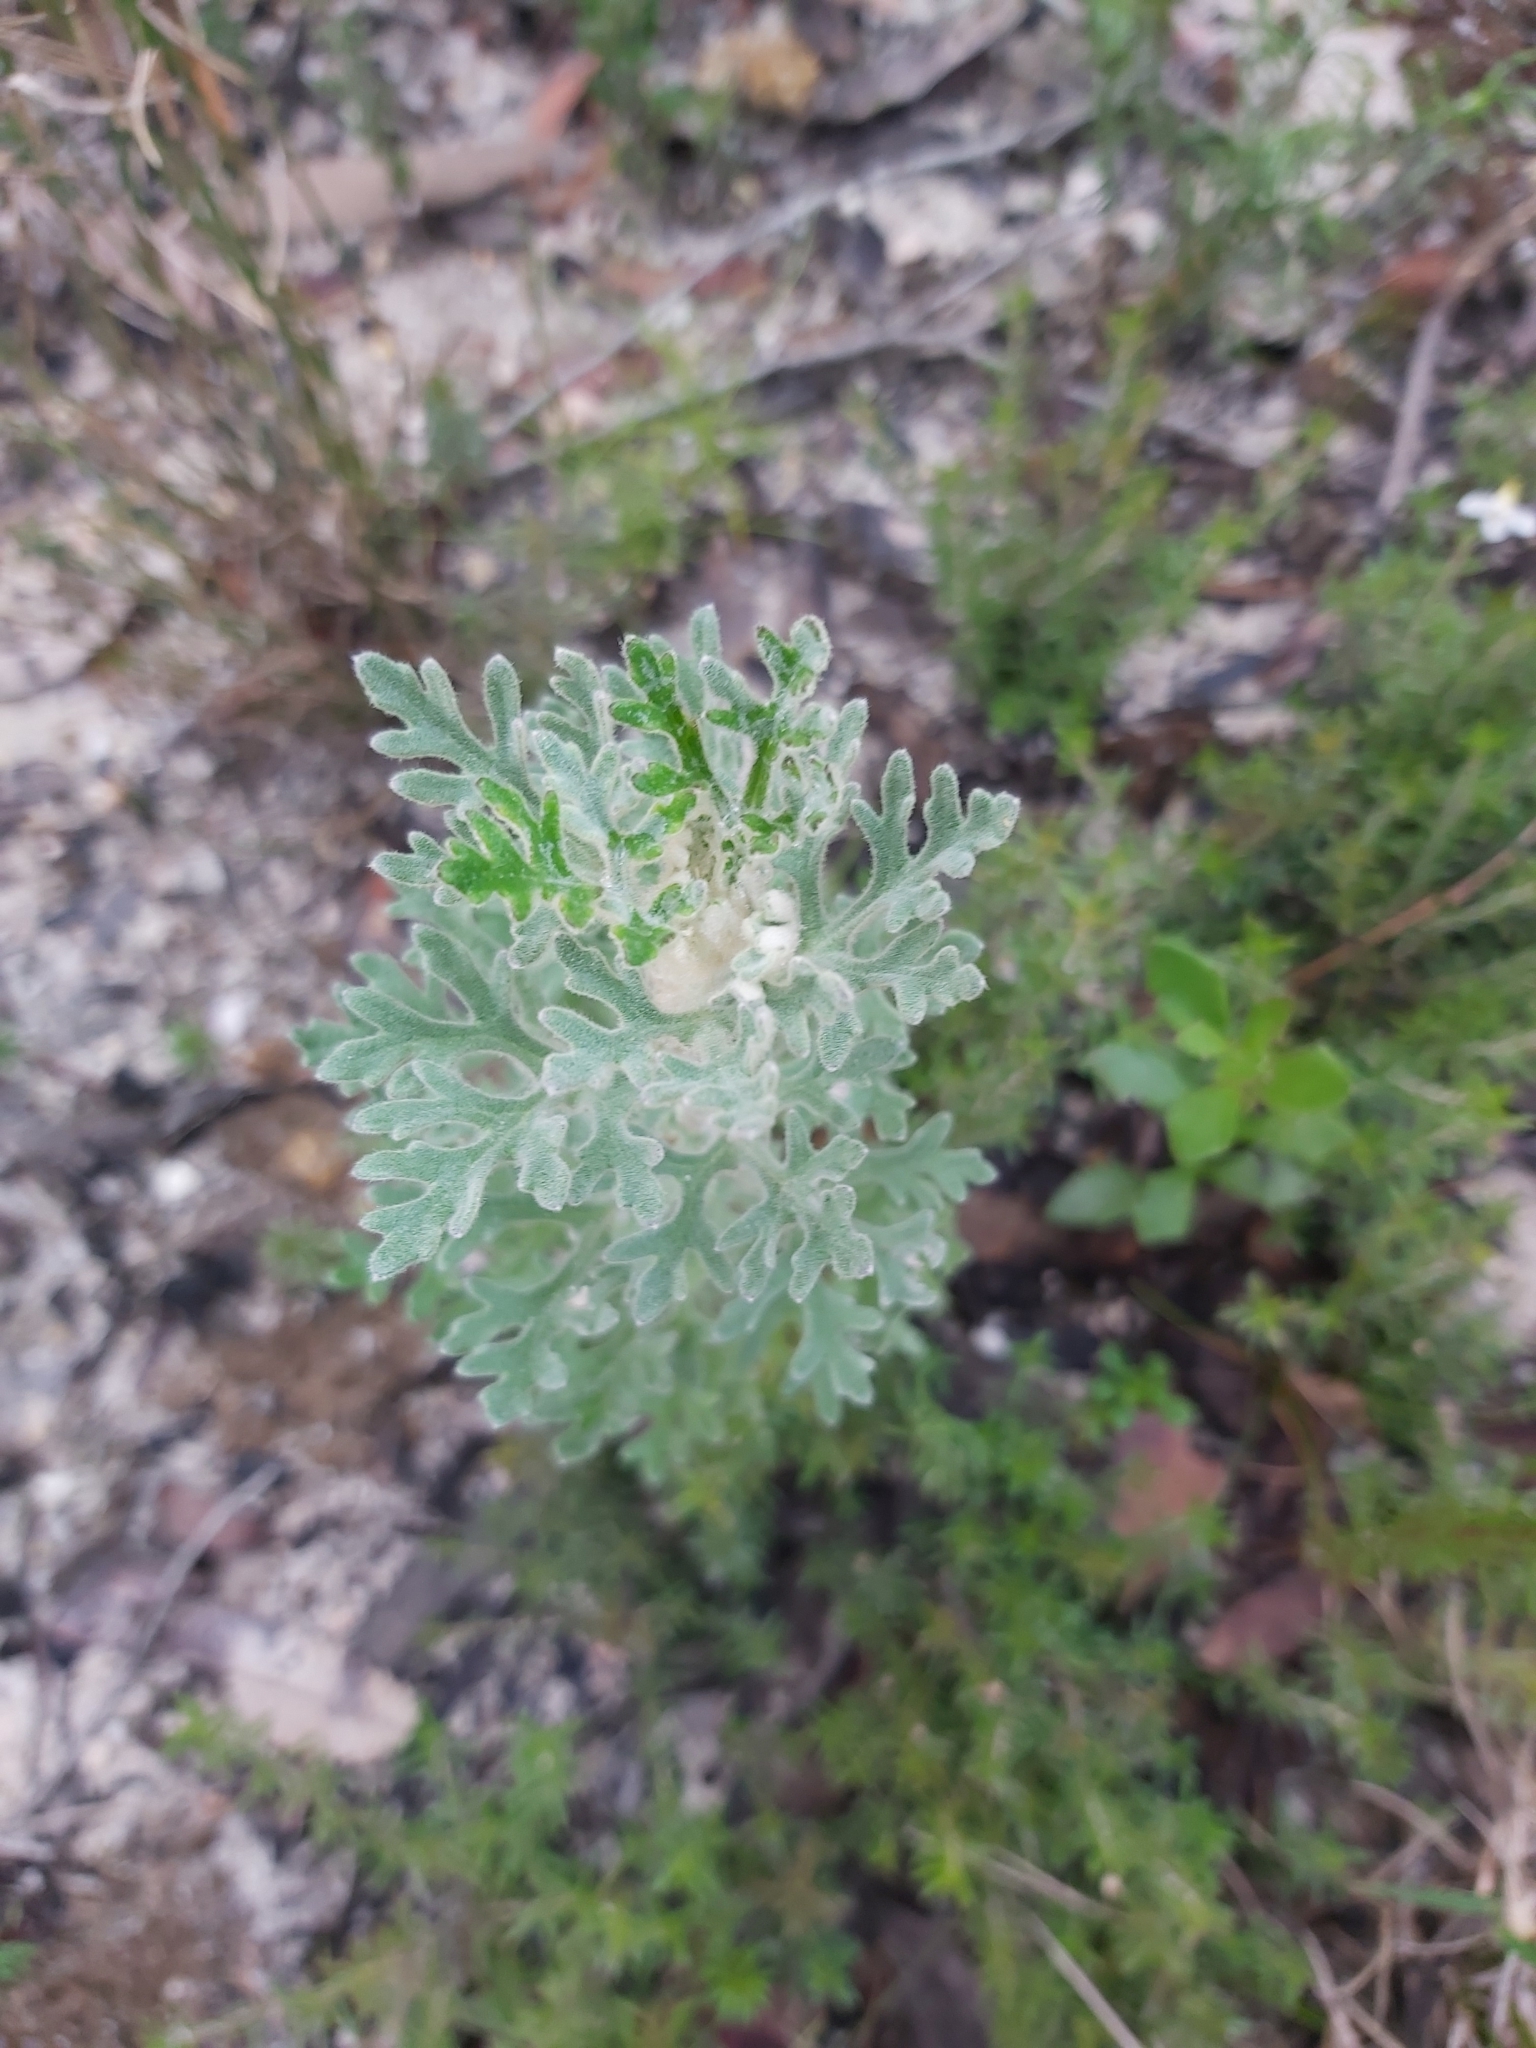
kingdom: Plantae
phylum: Tracheophyta
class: Magnoliopsida
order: Apiales
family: Apiaceae
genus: Actinotus
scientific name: Actinotus helianthi
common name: Flannel-flower
